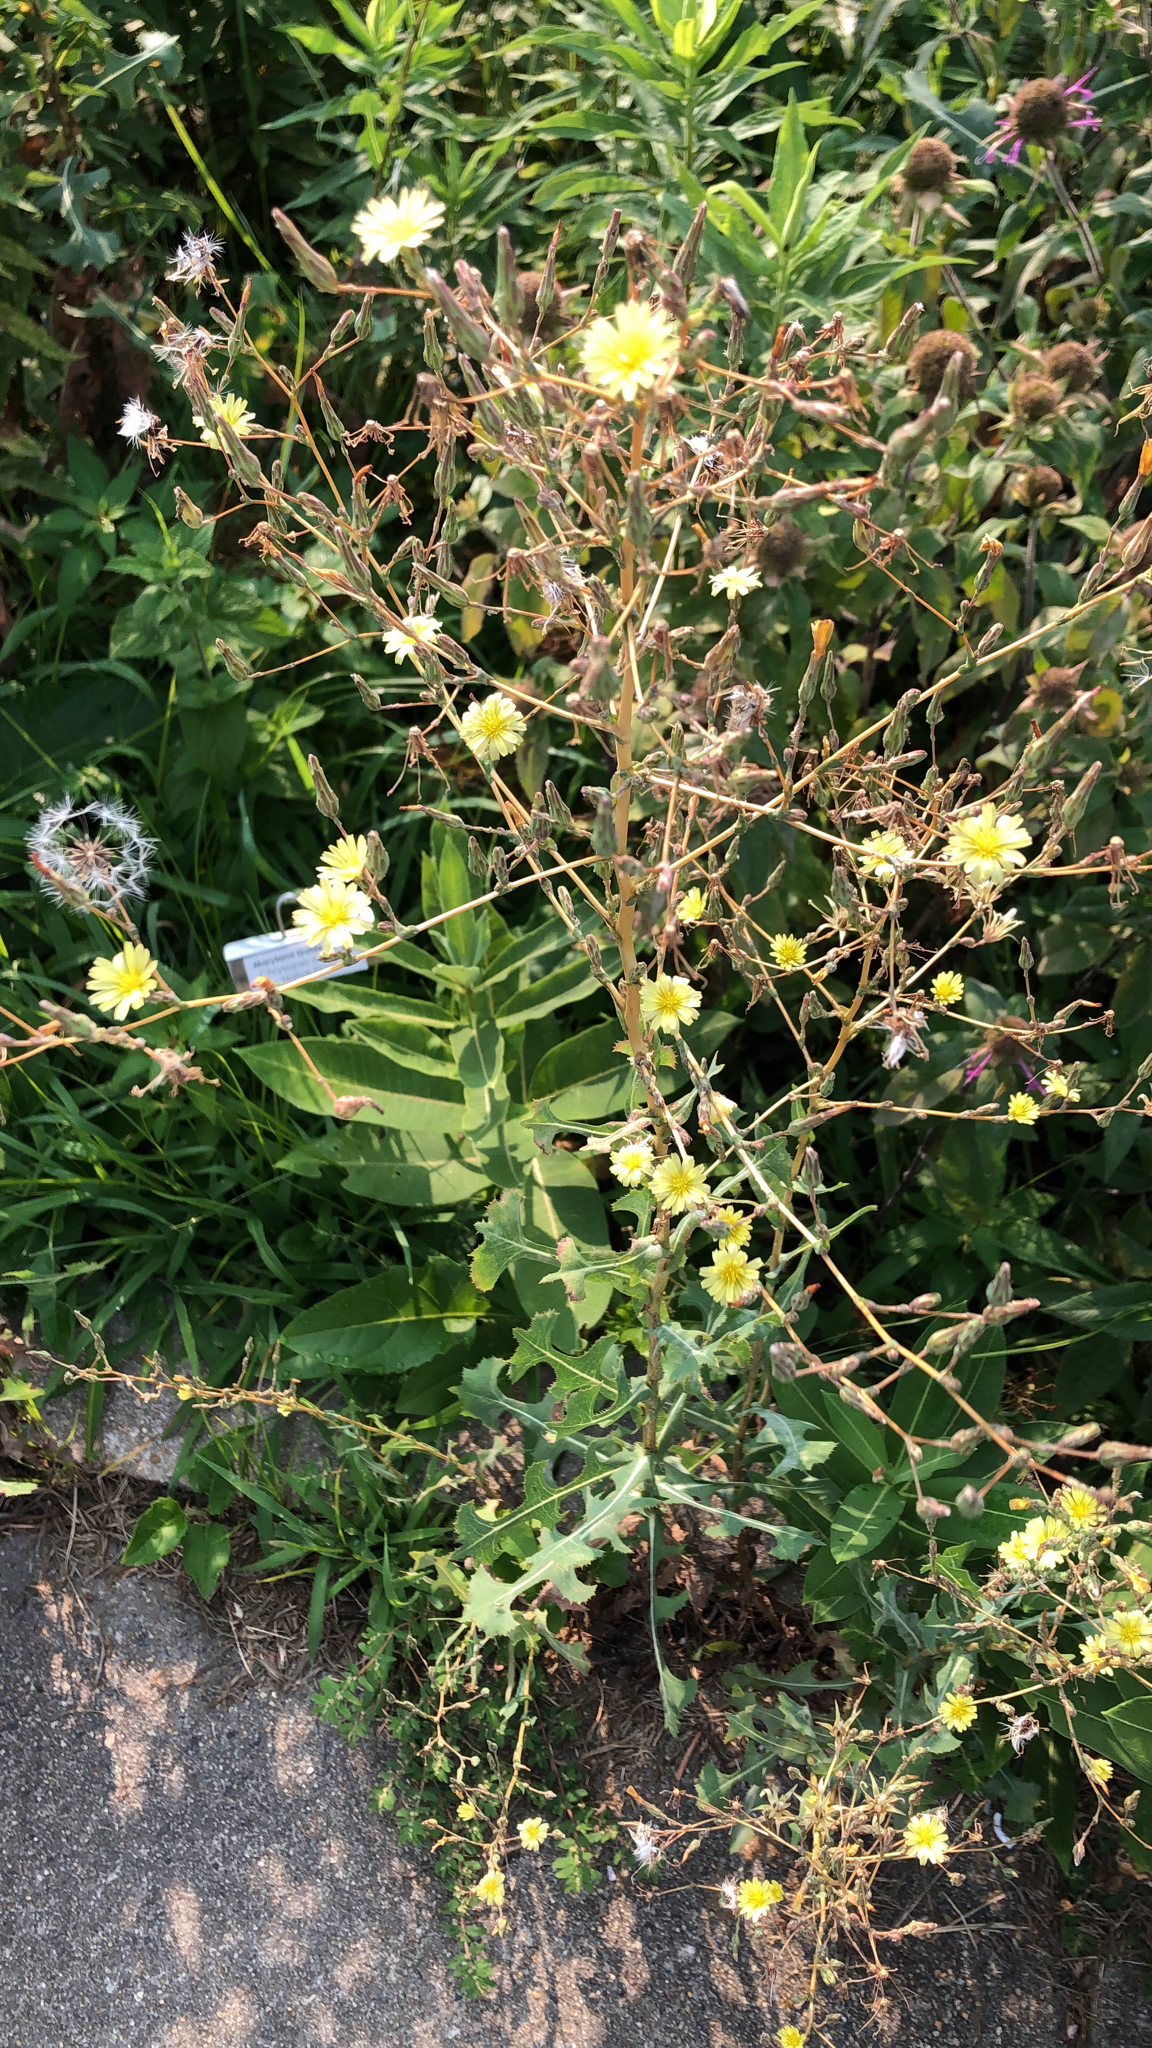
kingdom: Plantae
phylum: Tracheophyta
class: Magnoliopsida
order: Asterales
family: Asteraceae
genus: Lactuca
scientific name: Lactuca serriola
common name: Prickly lettuce
